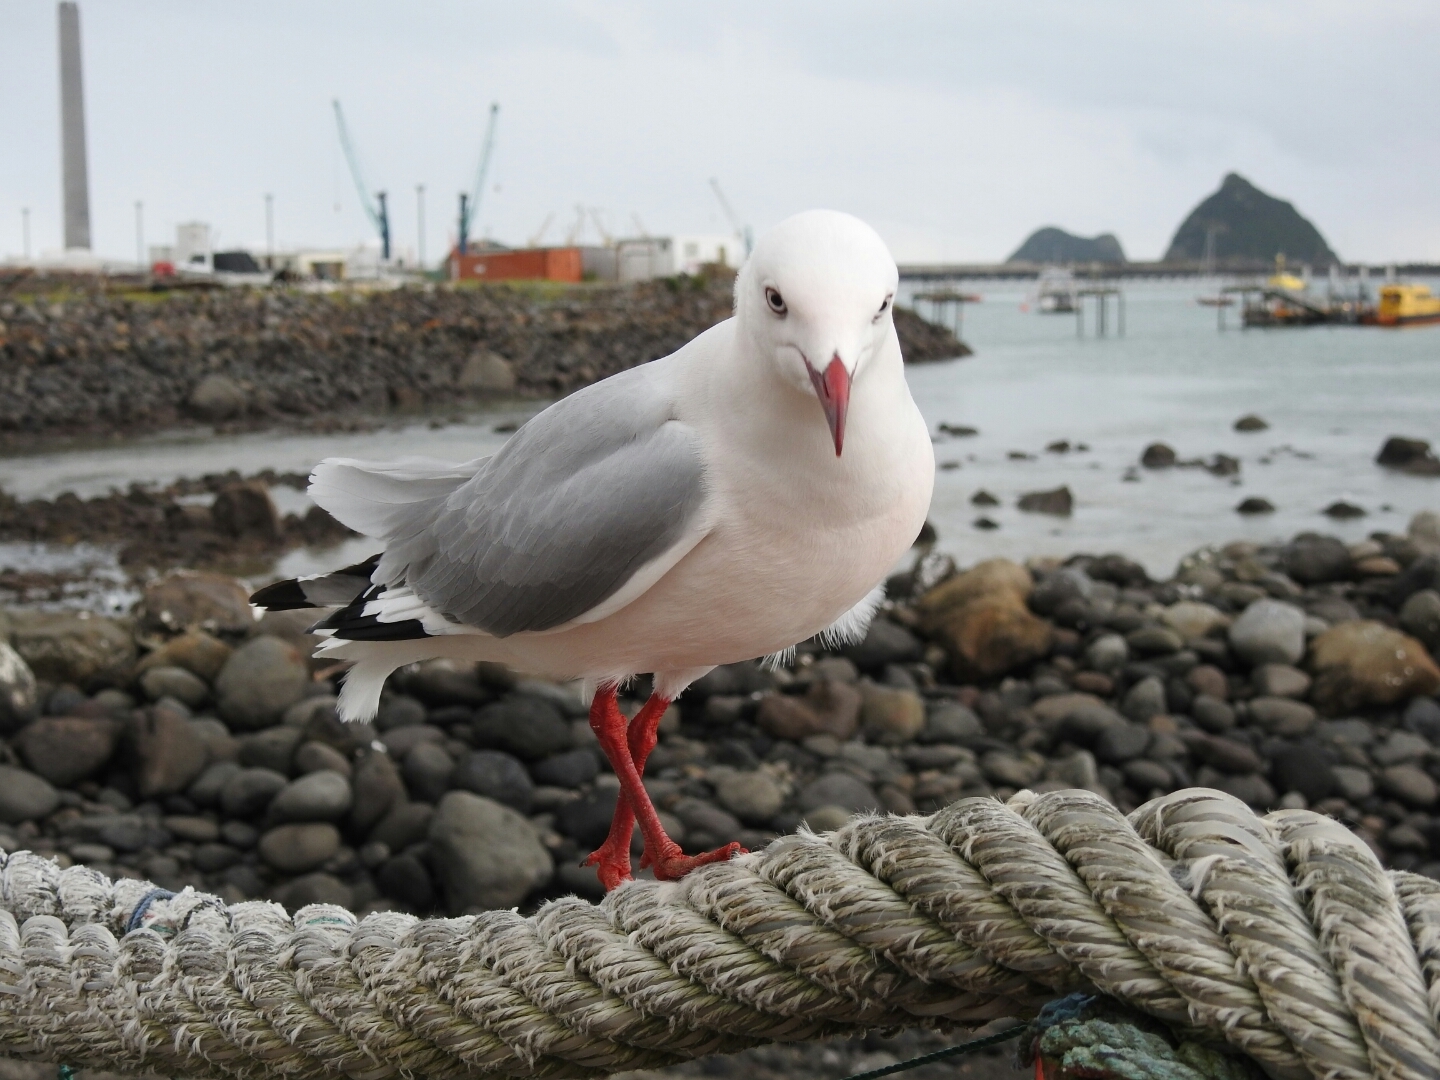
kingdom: Animalia
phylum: Chordata
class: Aves
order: Charadriiformes
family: Laridae
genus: Chroicocephalus
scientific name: Chroicocephalus novaehollandiae
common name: Silver gull
